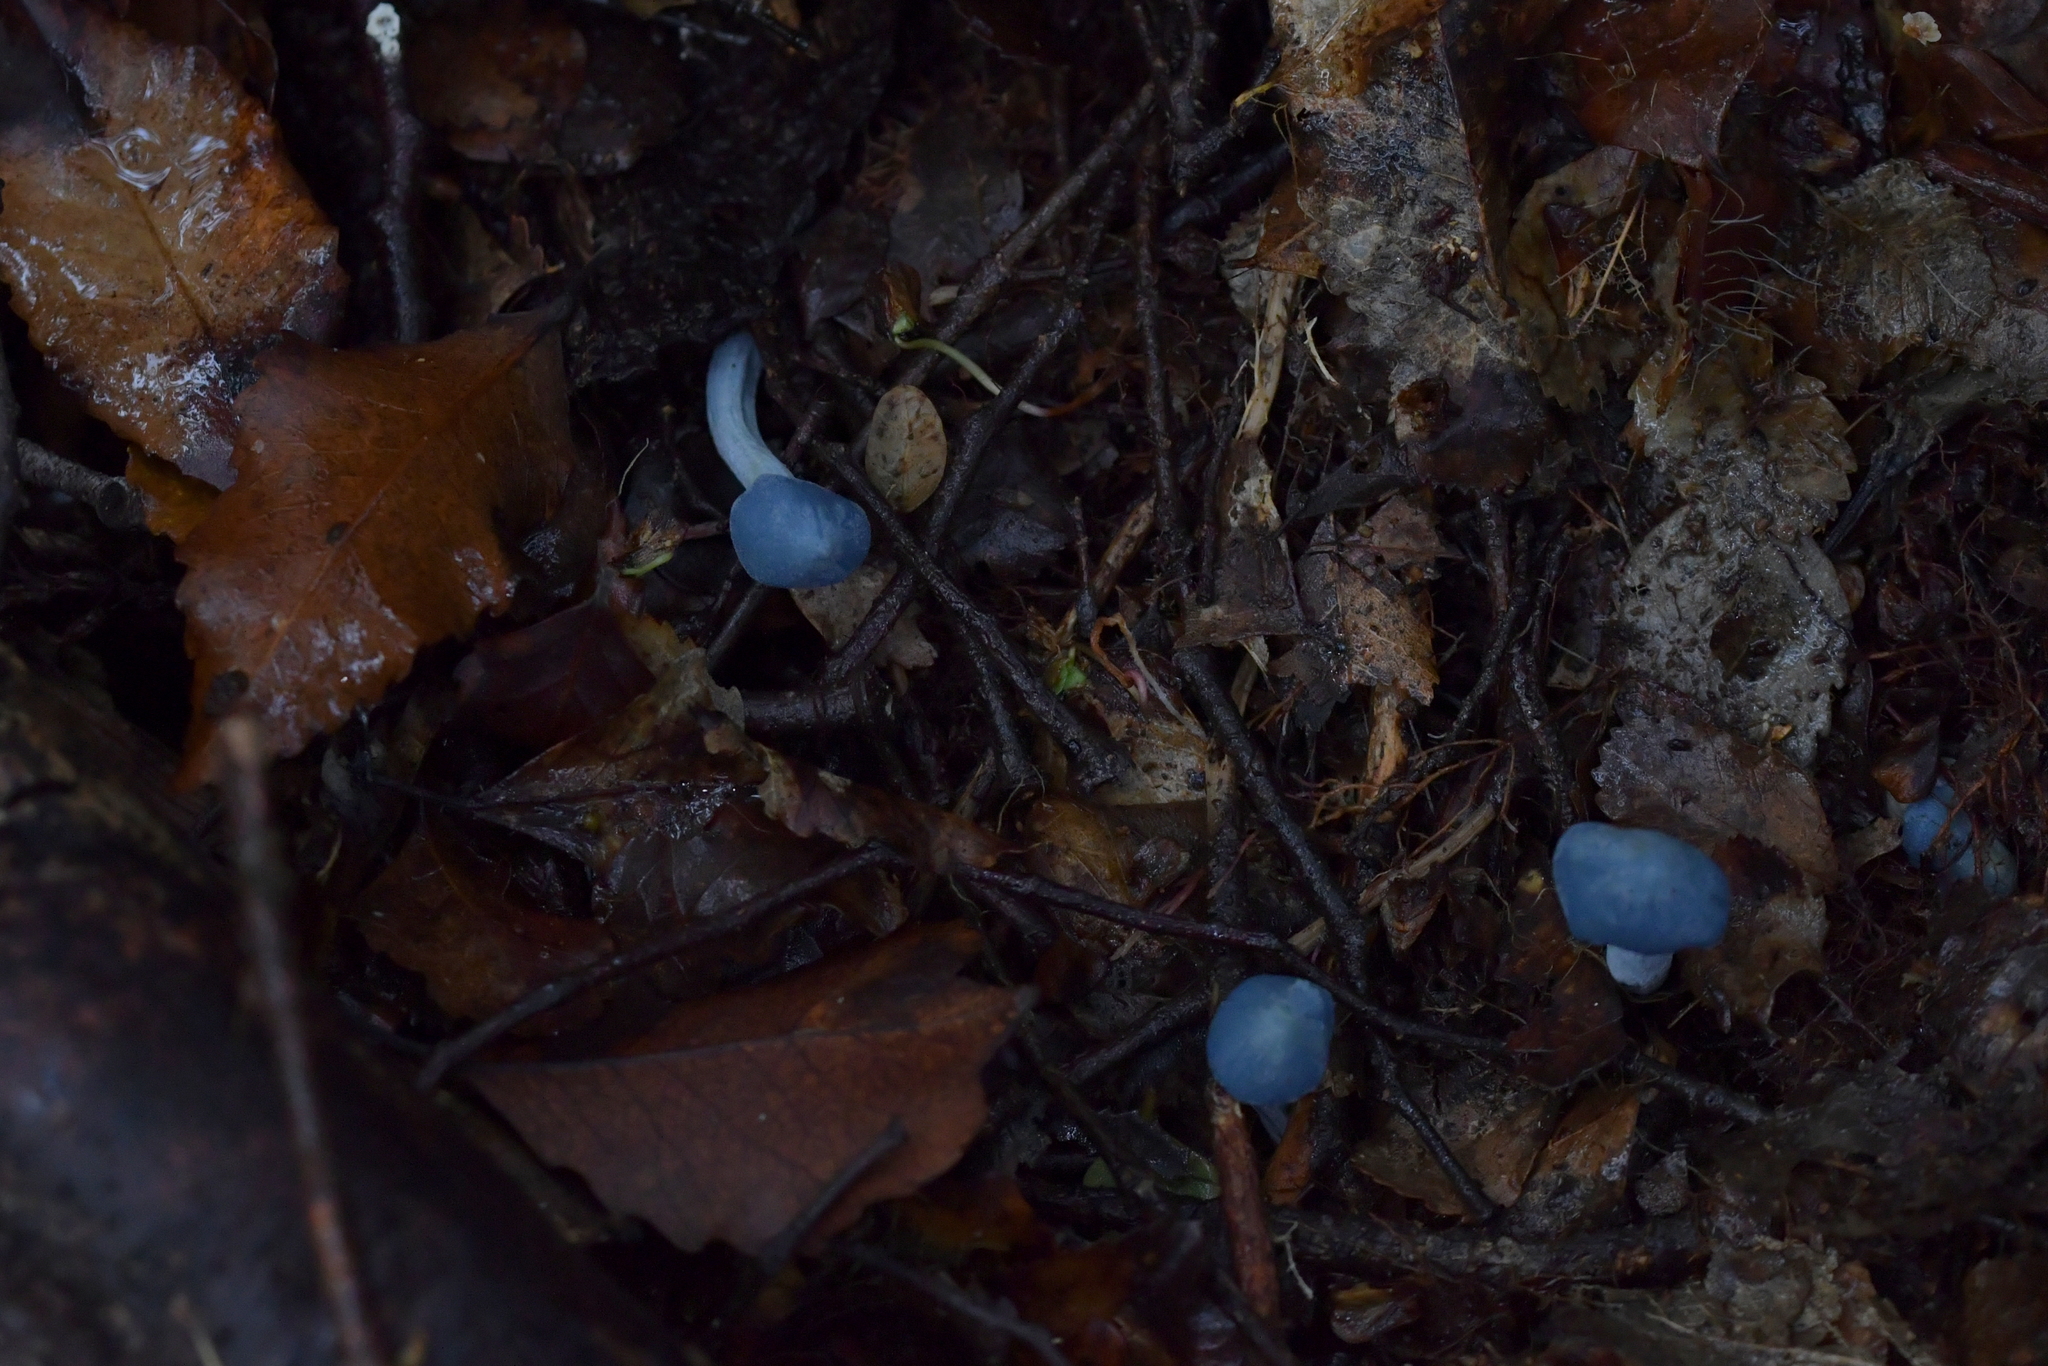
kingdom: Fungi
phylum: Basidiomycota
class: Agaricomycetes
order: Agaricales
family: Entolomataceae
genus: Entoloma
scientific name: Entoloma hochstetteri
